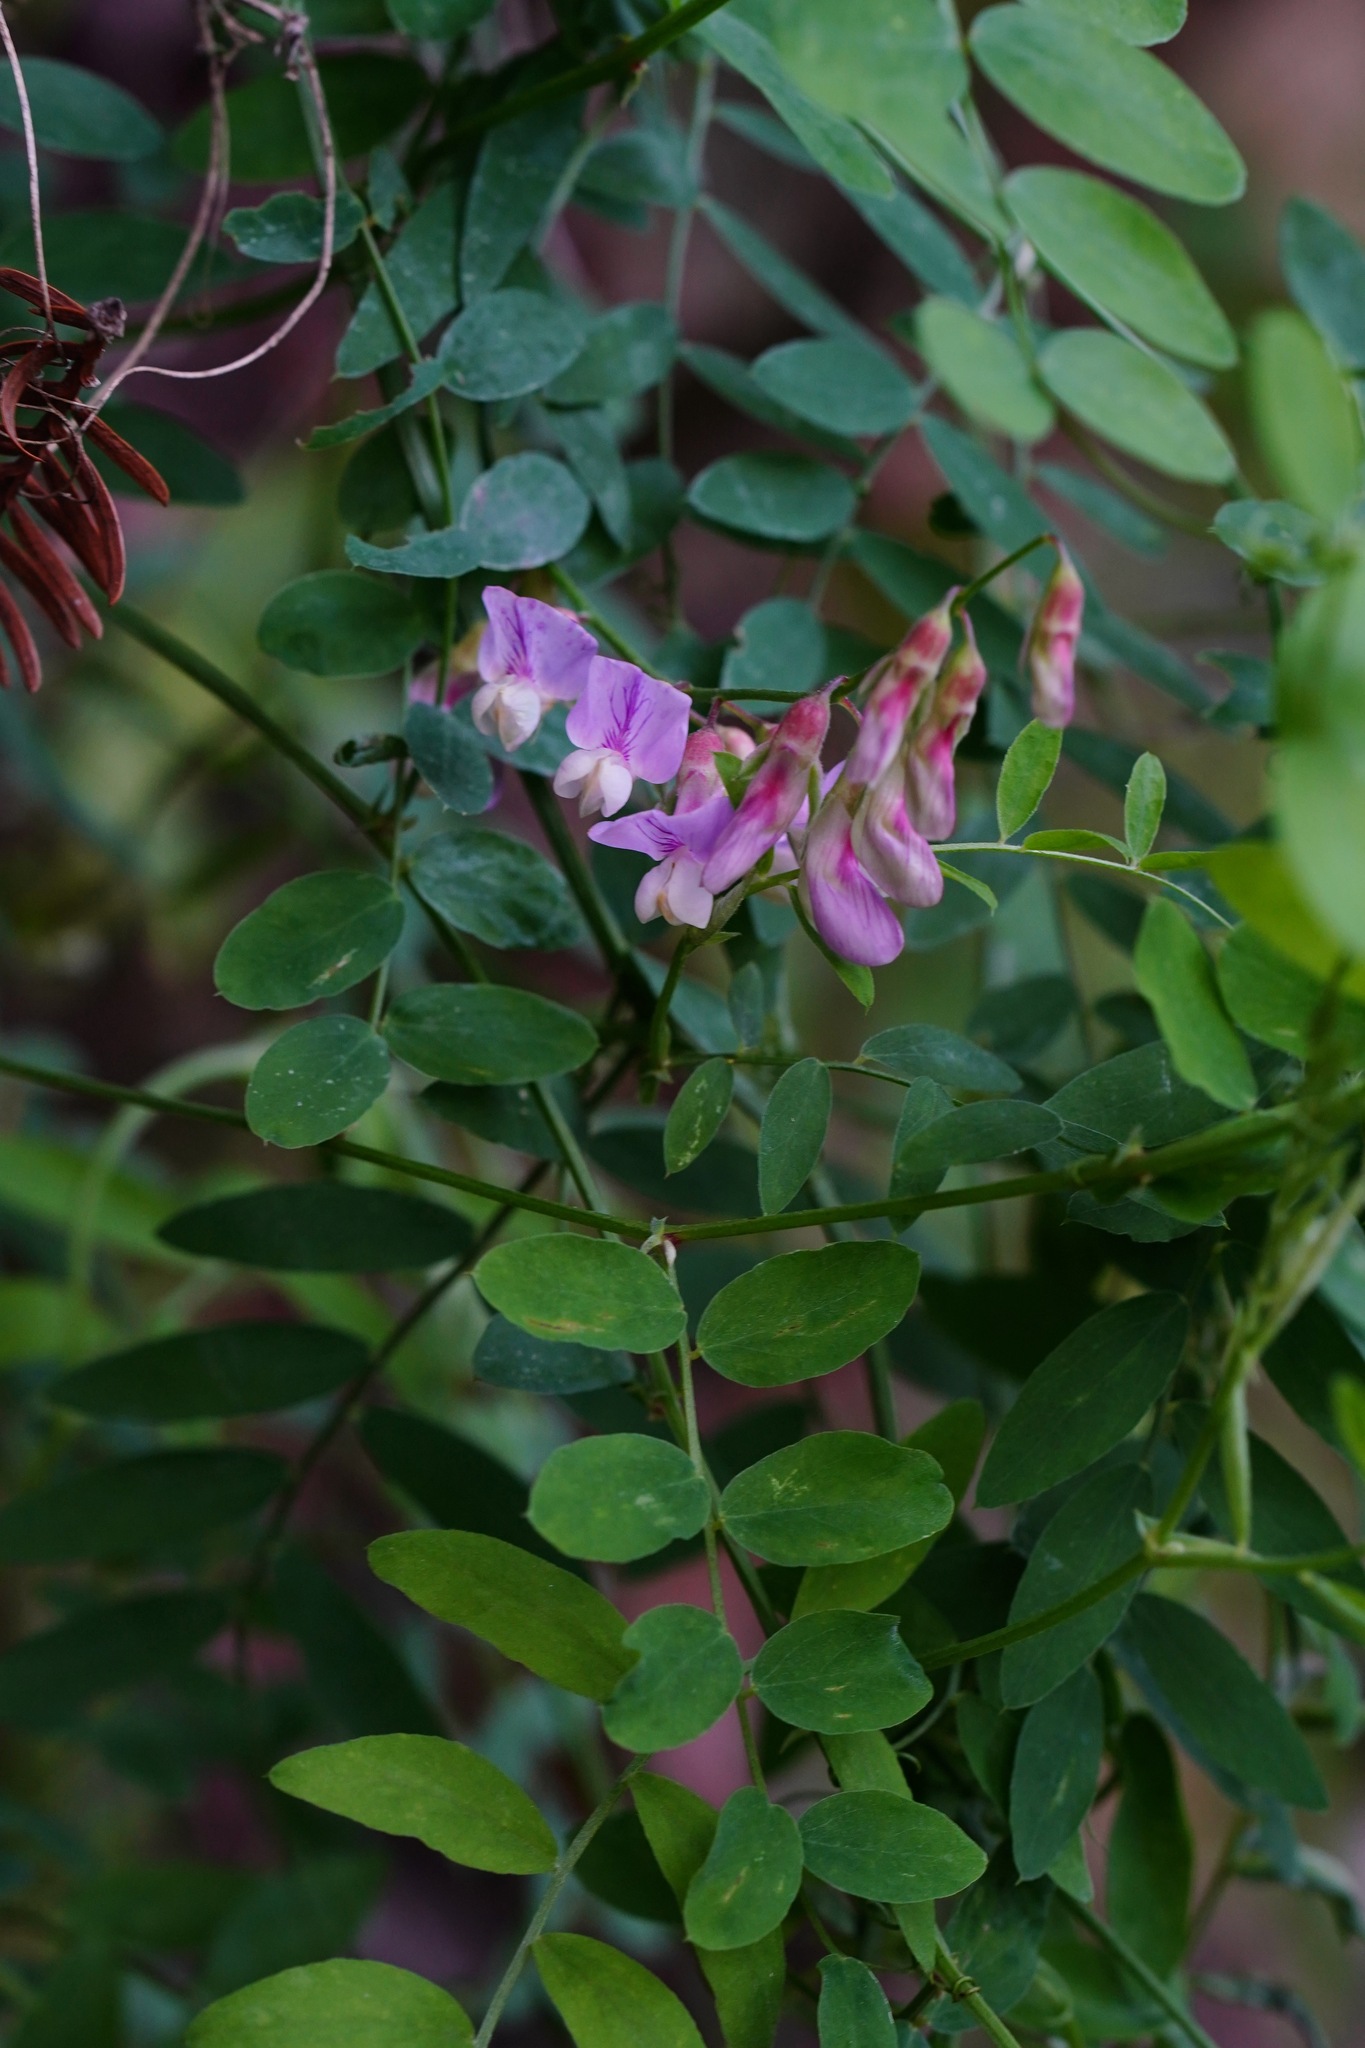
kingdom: Plantae
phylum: Tracheophyta
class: Magnoliopsida
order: Fabales
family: Fabaceae
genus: Lathyrus
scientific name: Lathyrus vestitus
